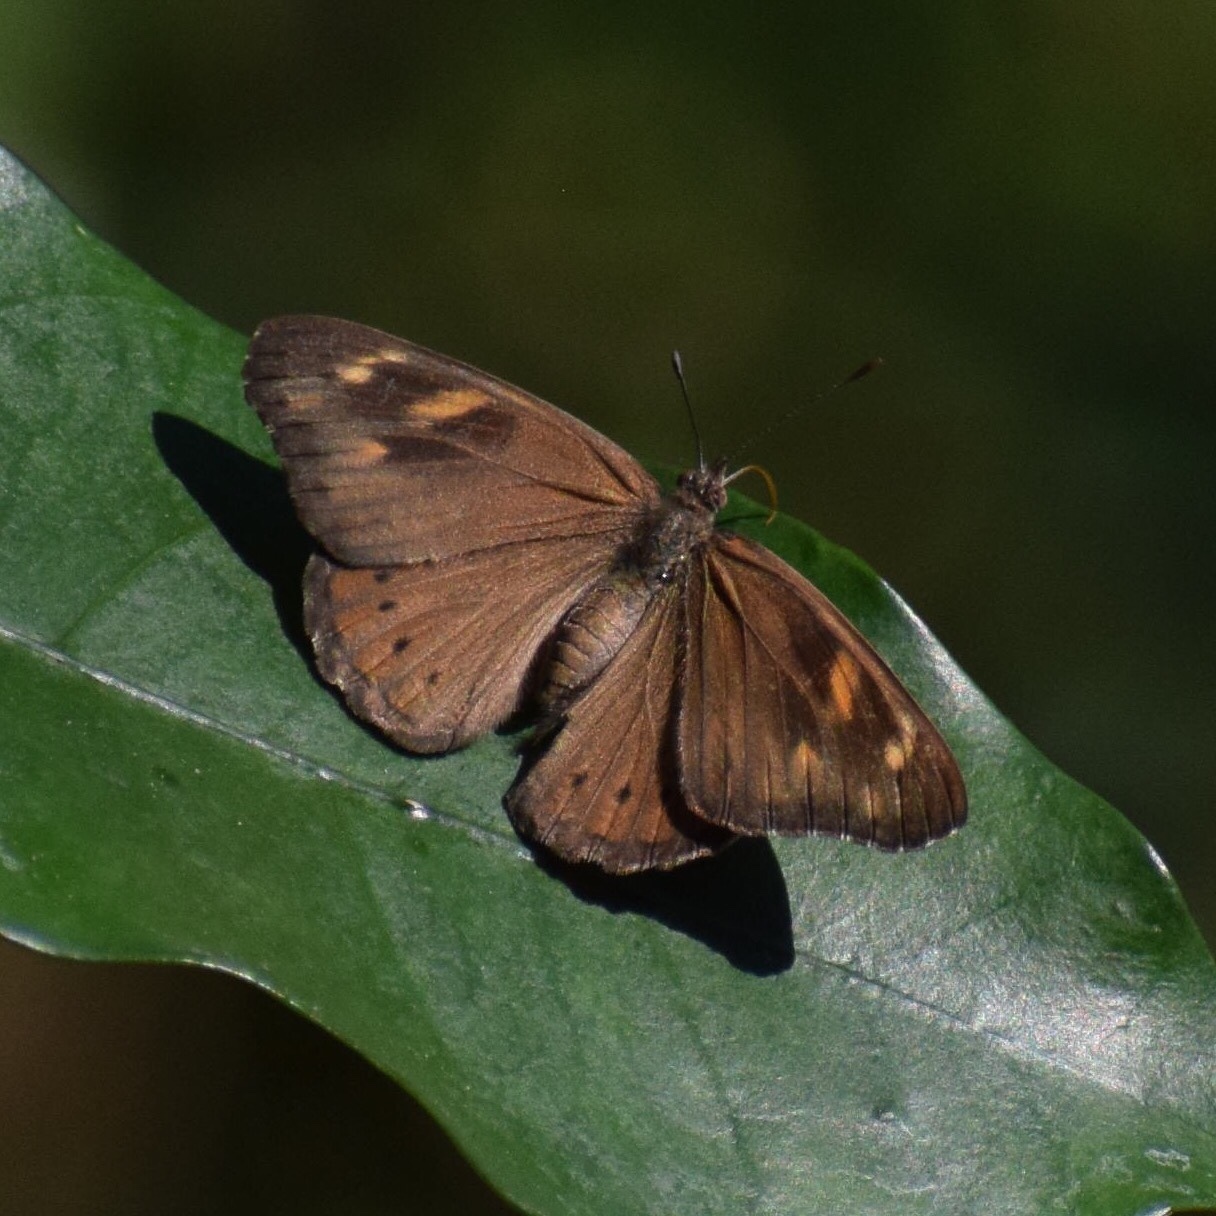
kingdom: Animalia
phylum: Arthropoda
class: Insecta
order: Lepidoptera
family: Nymphalidae
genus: Asterope
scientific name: Asterope boisduvali
